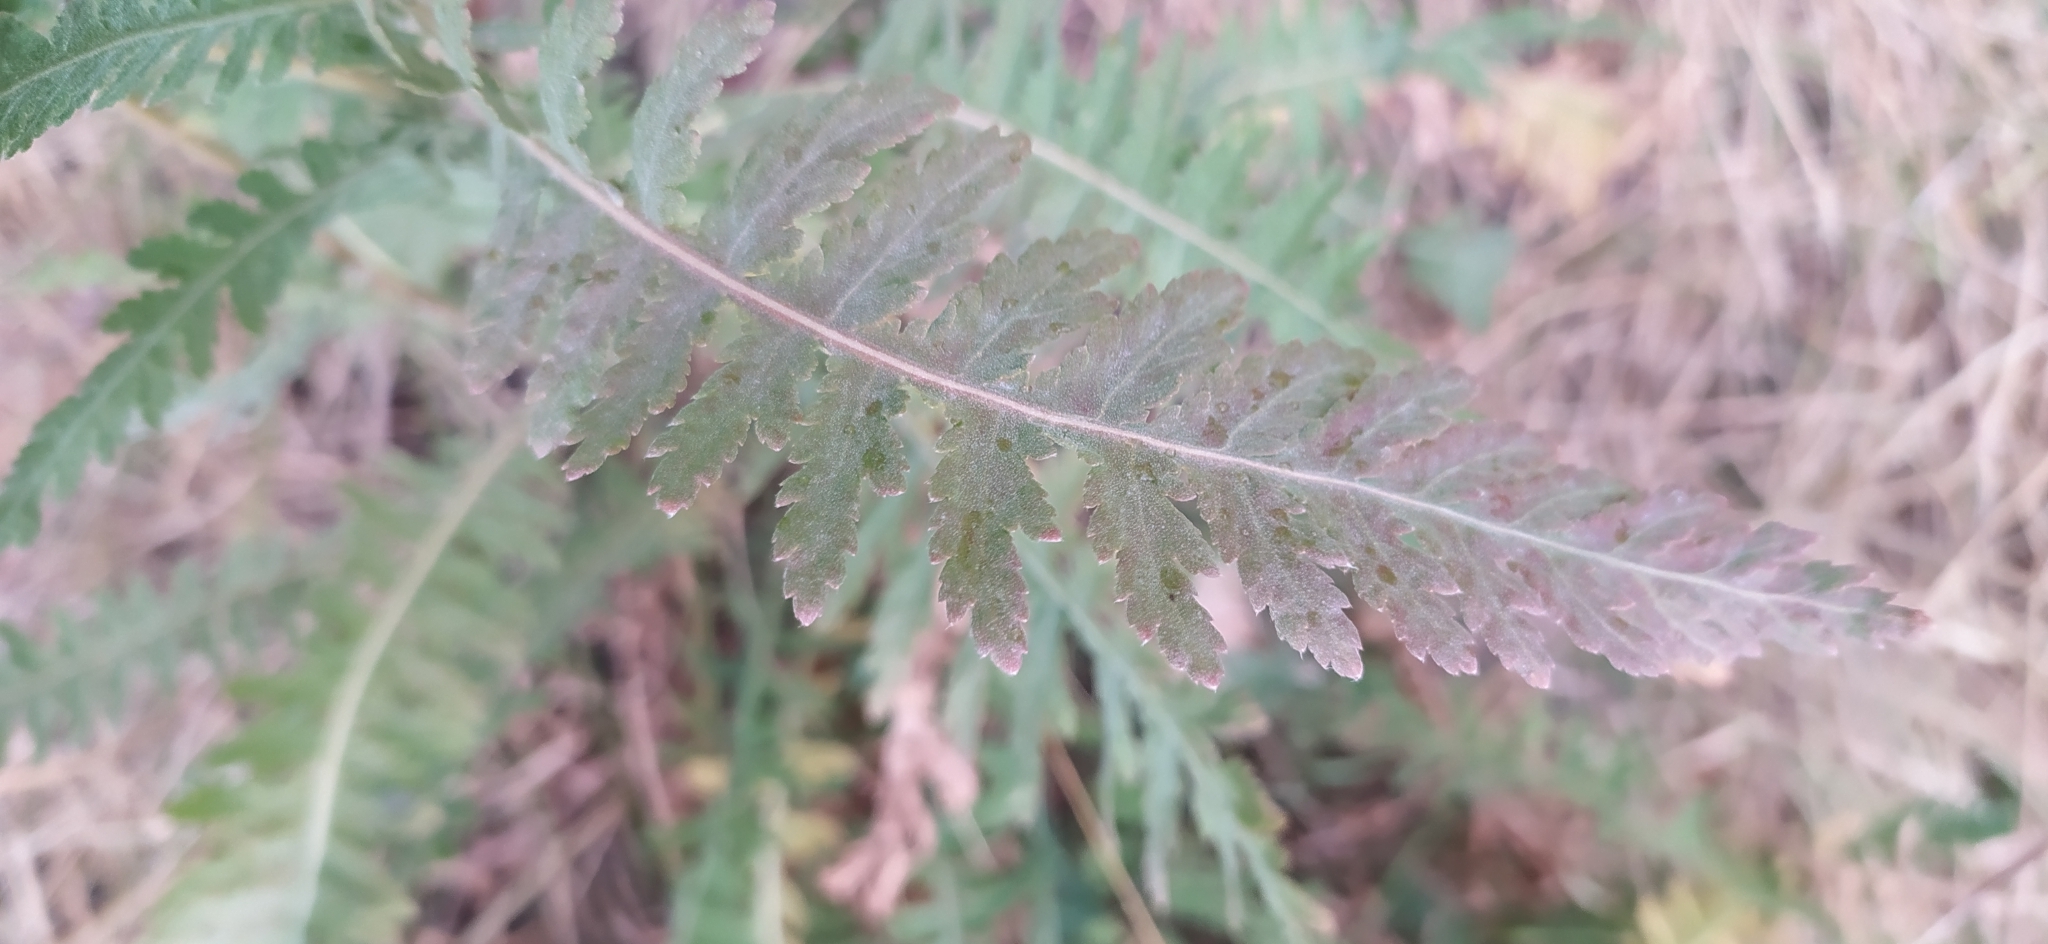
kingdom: Plantae
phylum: Tracheophyta
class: Magnoliopsida
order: Asterales
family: Asteraceae
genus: Achillea
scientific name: Achillea filipendulina
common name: Fernleaf yarrow
